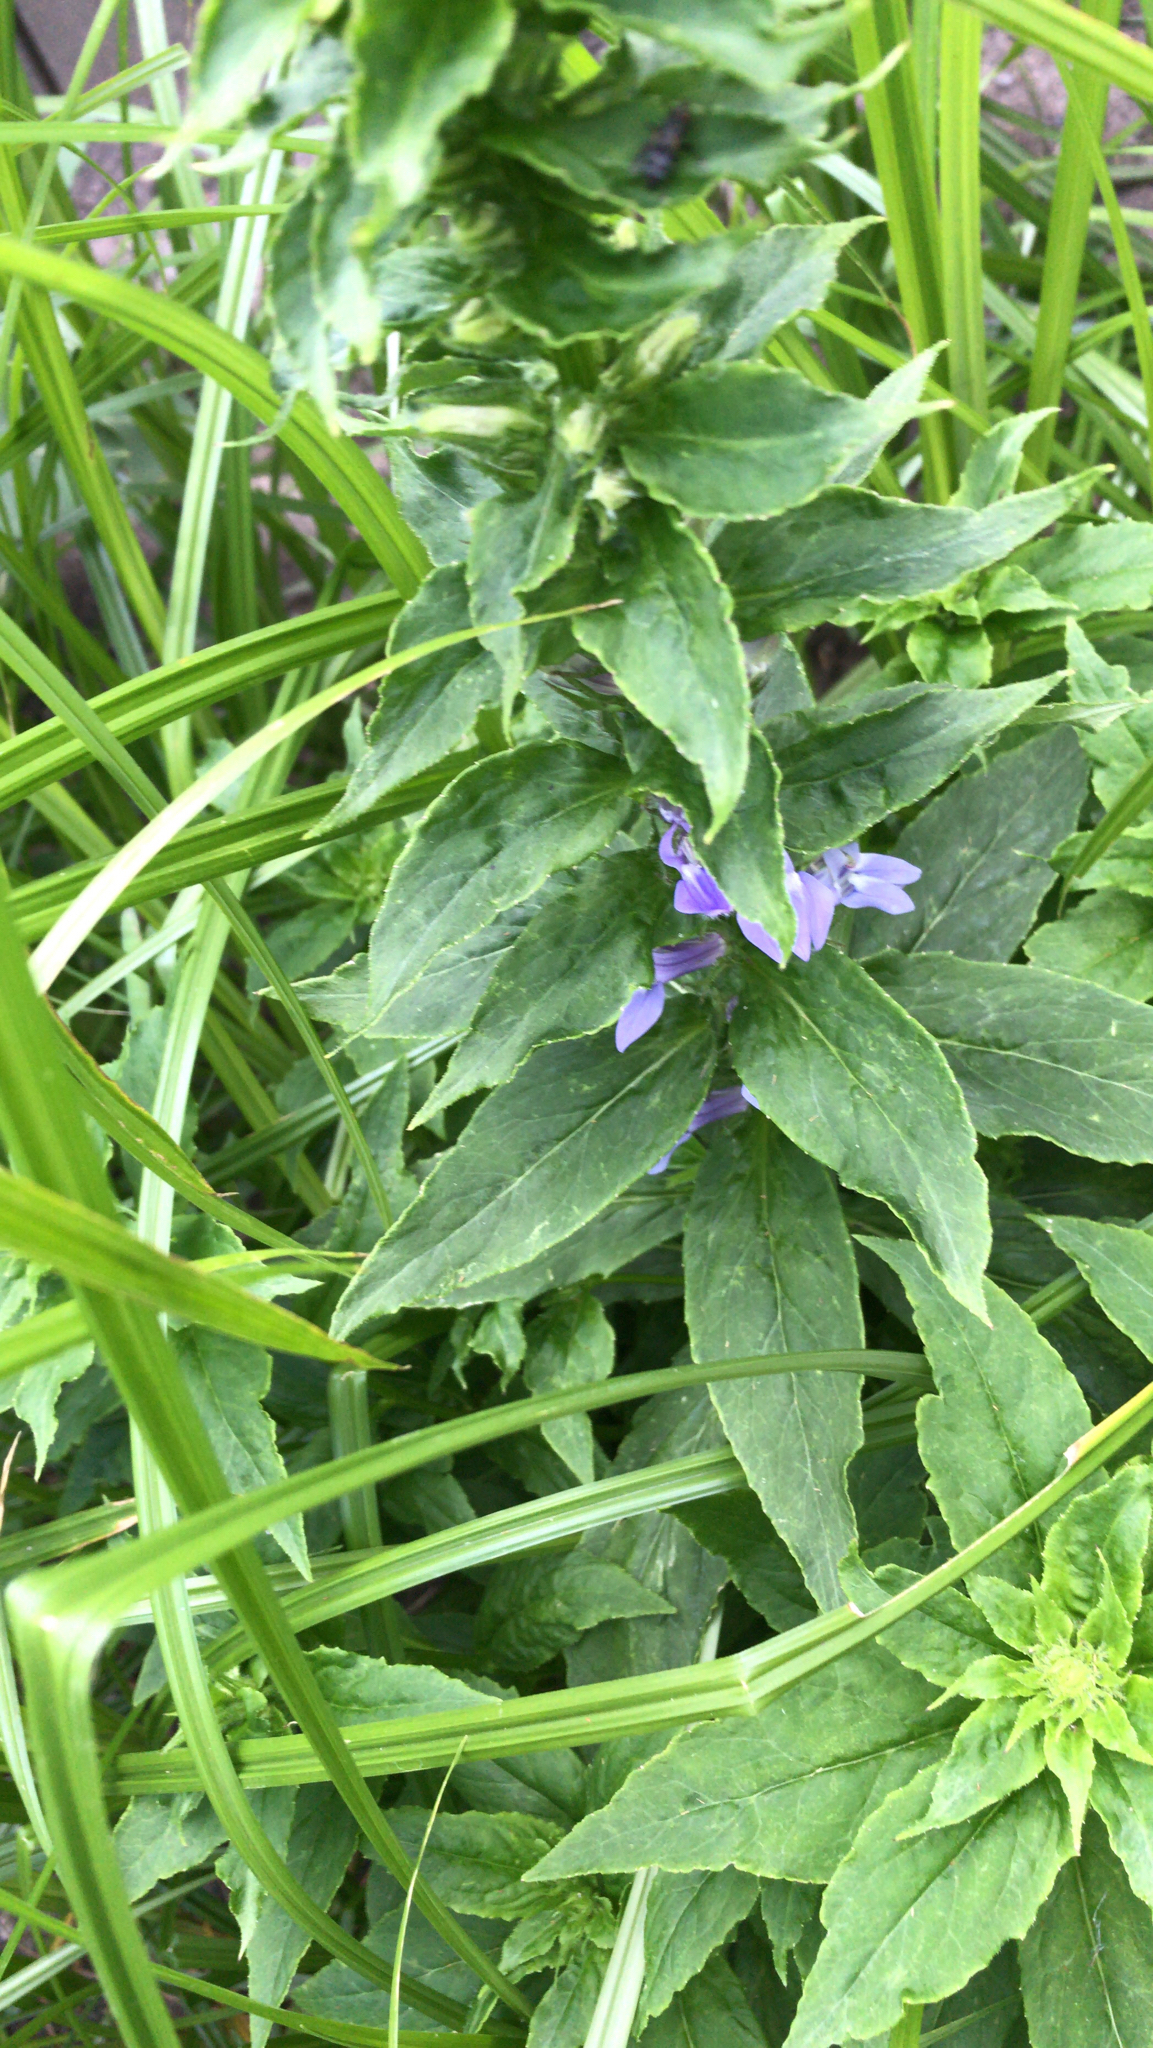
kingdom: Plantae
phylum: Tracheophyta
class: Magnoliopsida
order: Asterales
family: Campanulaceae
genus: Lobelia
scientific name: Lobelia siphilitica
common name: Great lobelia
